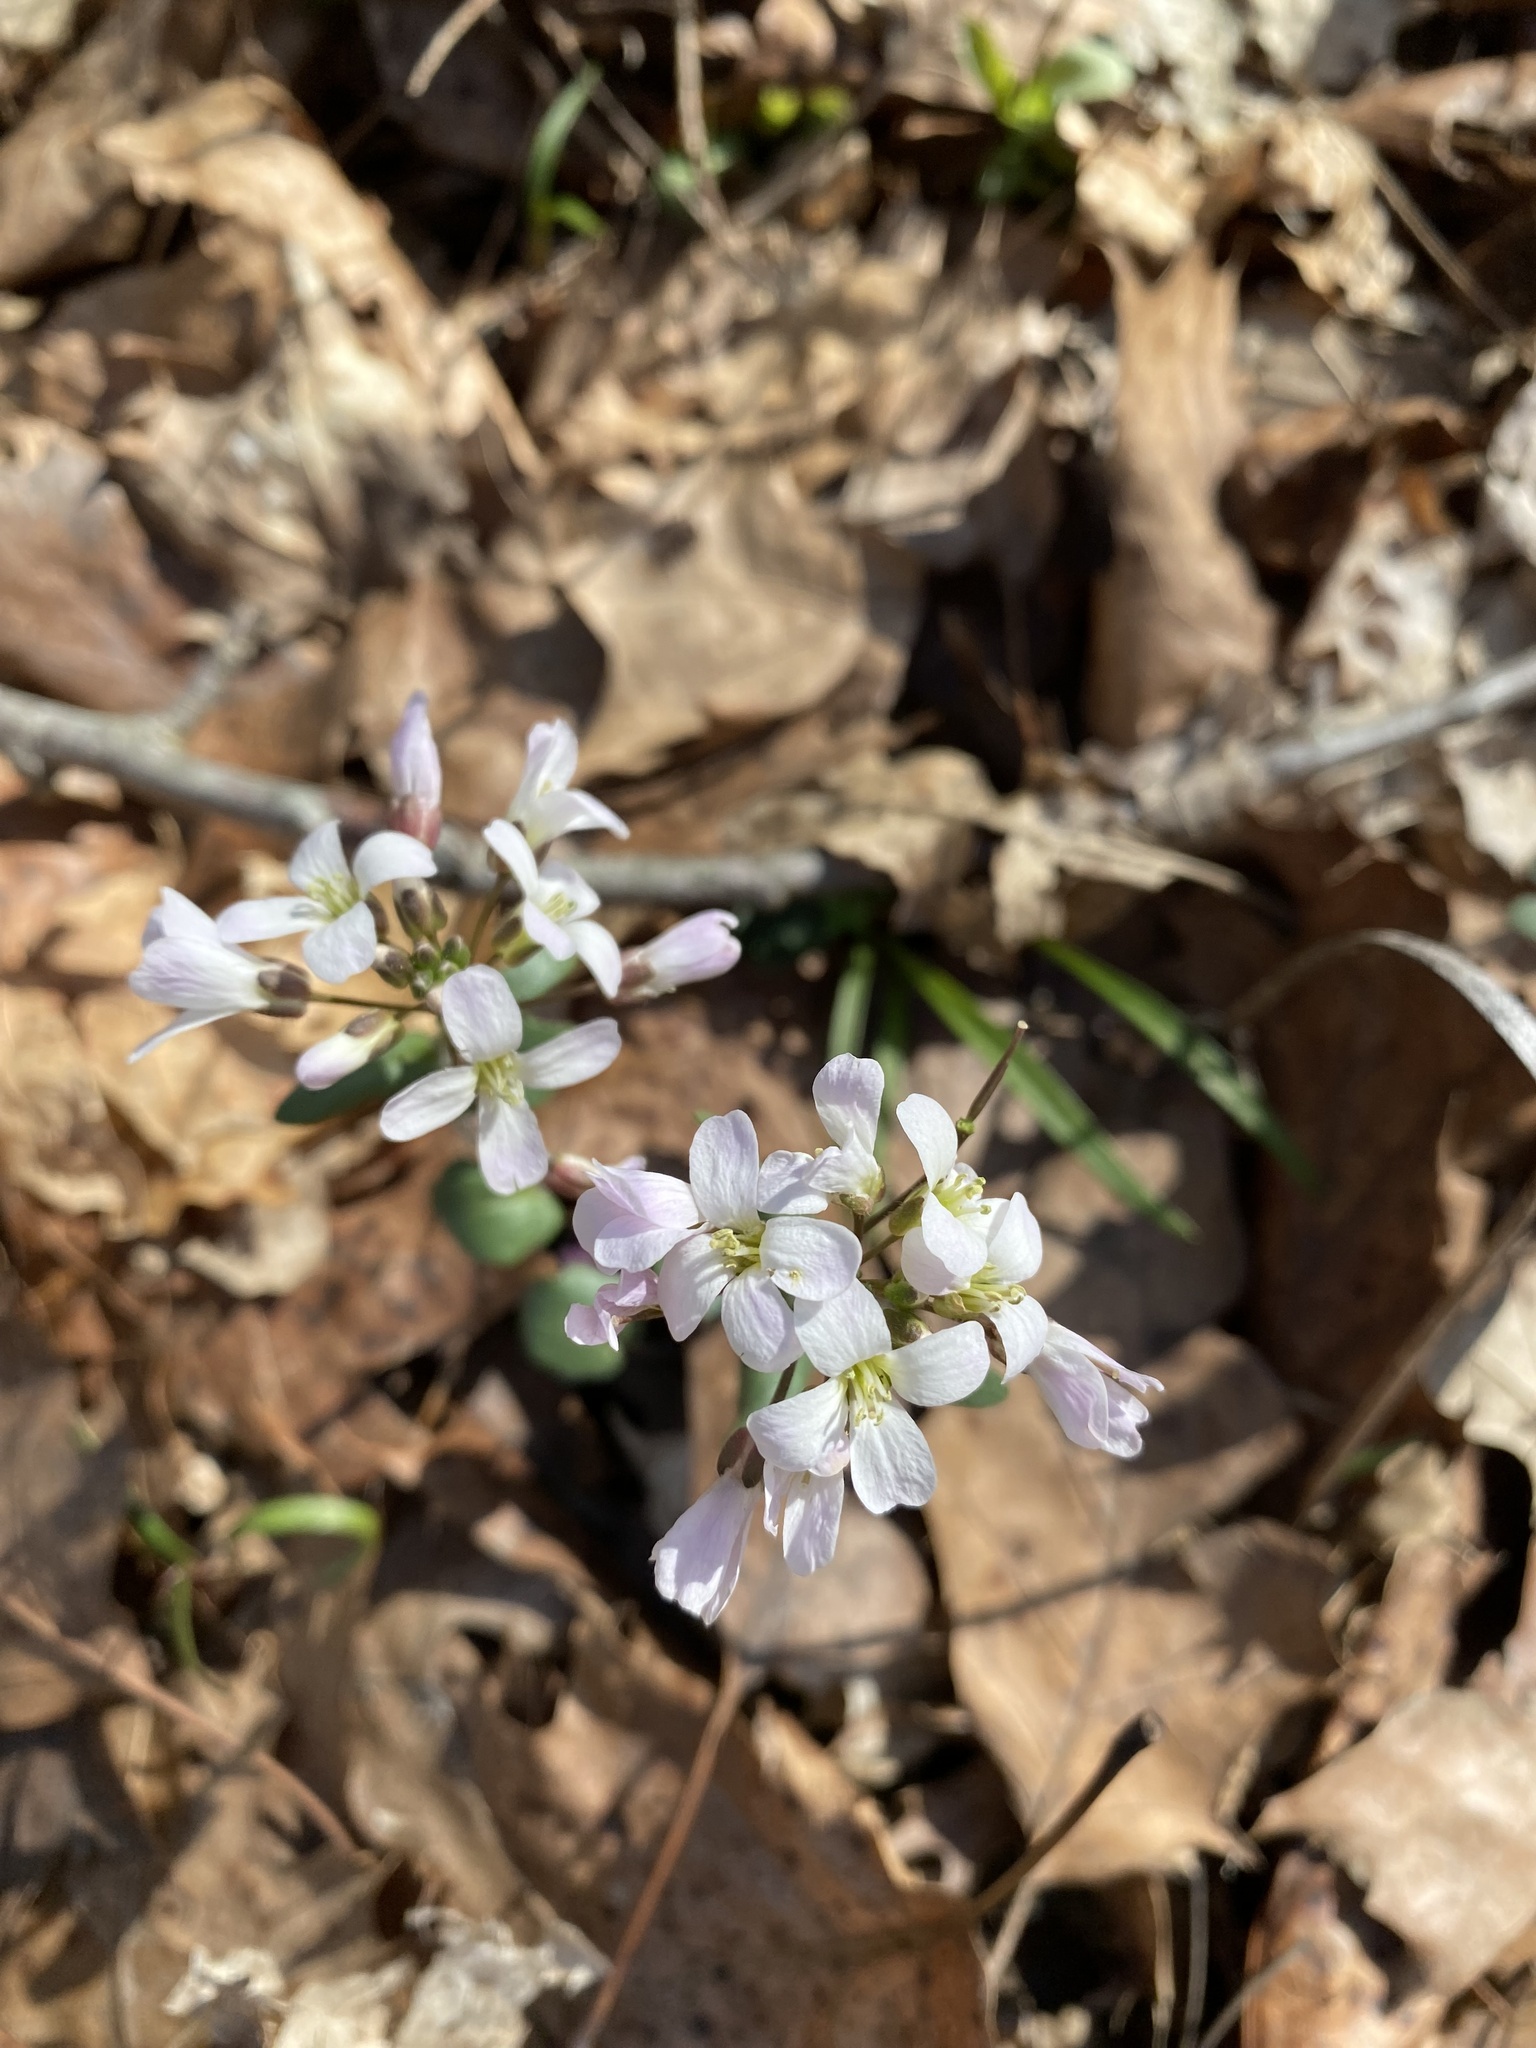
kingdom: Plantae
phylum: Tracheophyta
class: Magnoliopsida
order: Brassicales
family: Brassicaceae
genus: Cardamine
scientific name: Cardamine douglassii
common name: Purple cress
